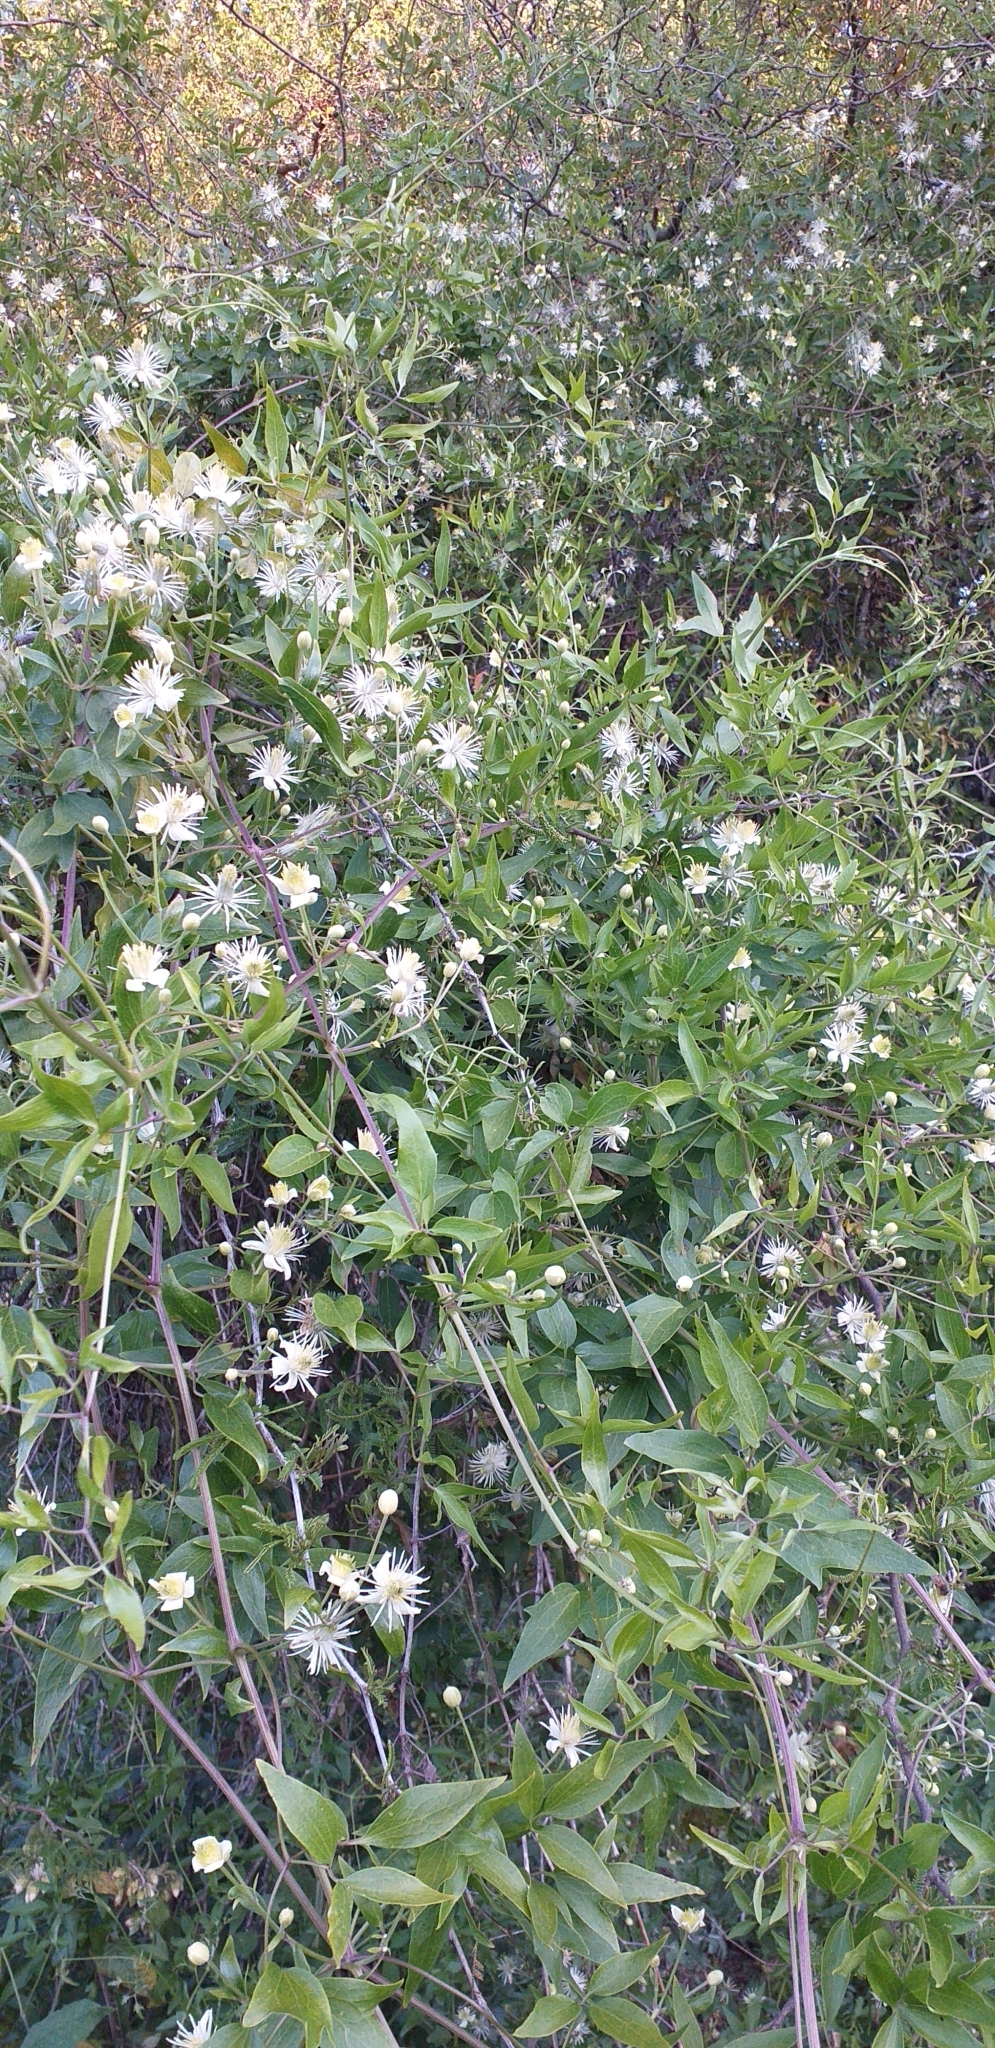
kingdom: Plantae
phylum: Tracheophyta
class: Magnoliopsida
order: Ranunculales
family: Ranunculaceae
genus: Clematis
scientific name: Clematis montevidensis
